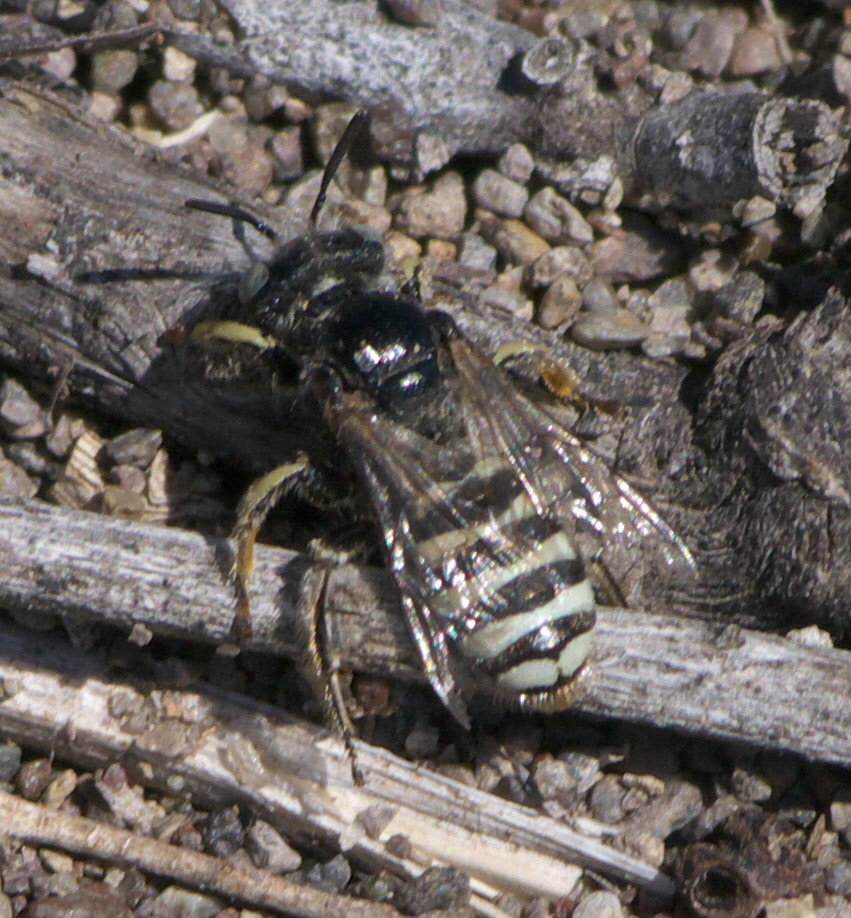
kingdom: Animalia
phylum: Arthropoda
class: Insecta
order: Hymenoptera
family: Andrenidae
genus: Calliopsis
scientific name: Calliopsis
